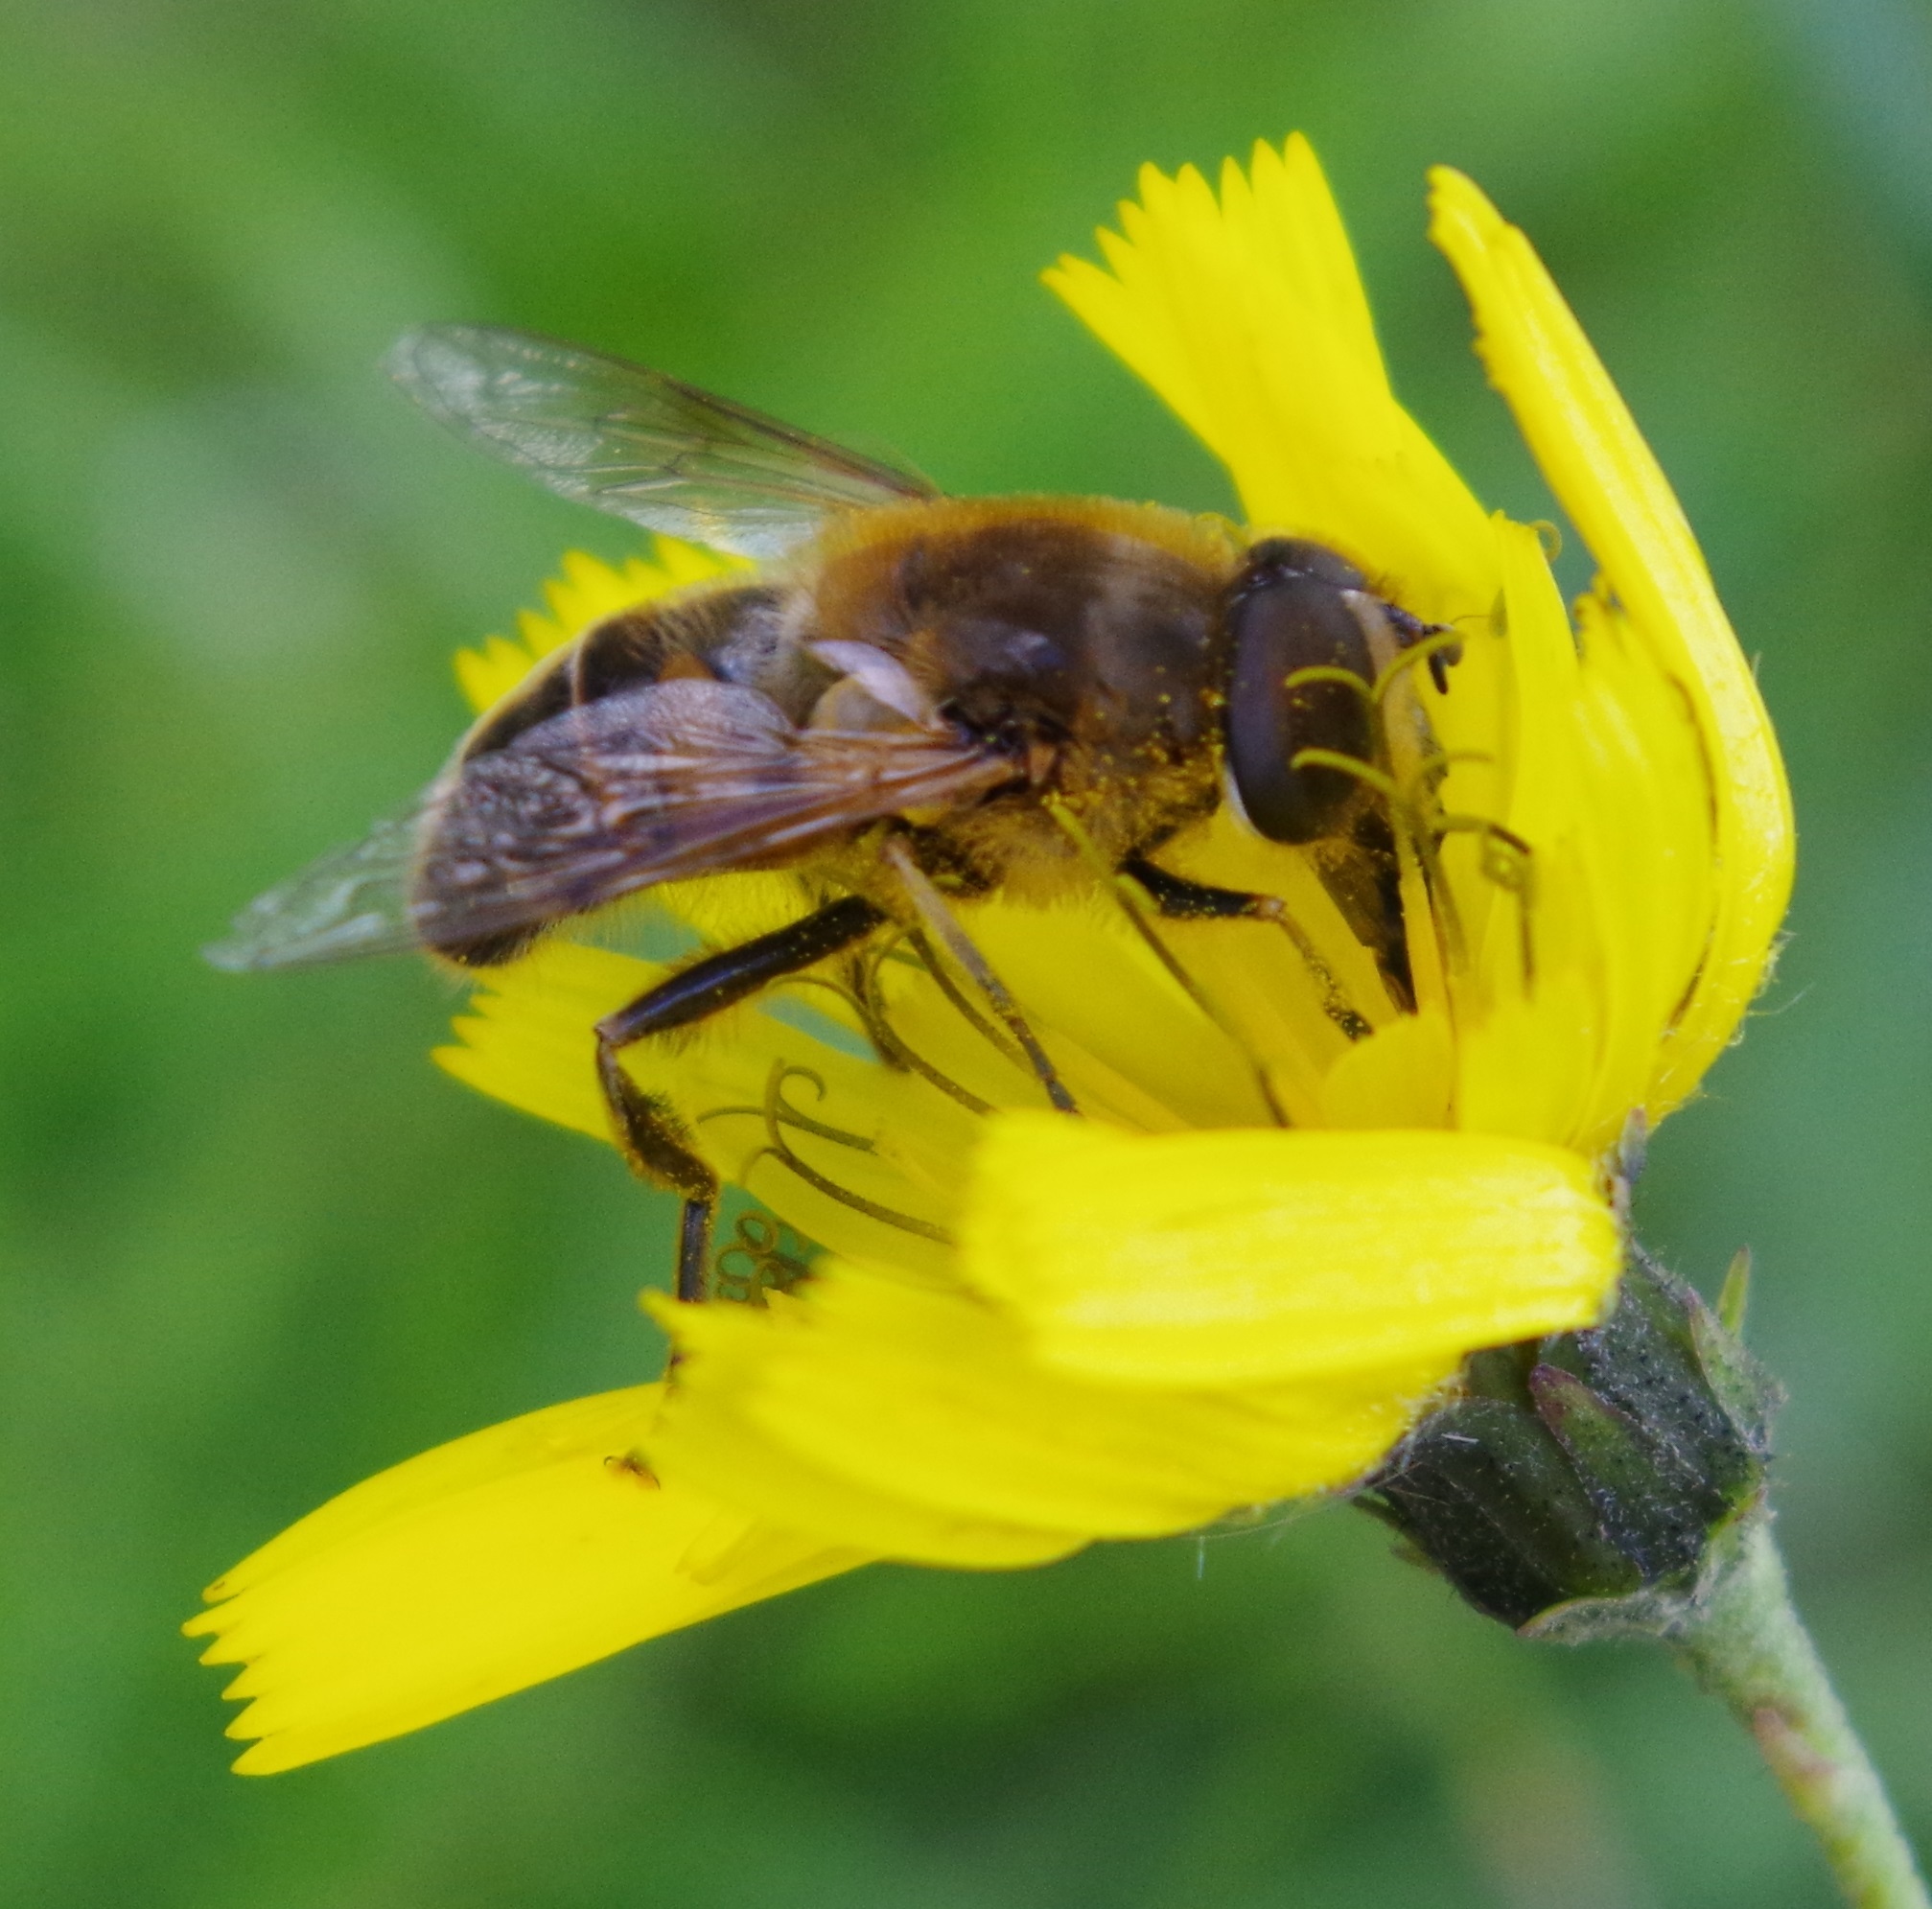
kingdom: Animalia
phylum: Arthropoda
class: Insecta
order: Diptera
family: Syrphidae
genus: Eristalis
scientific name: Eristalis tenax
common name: Drone fly
